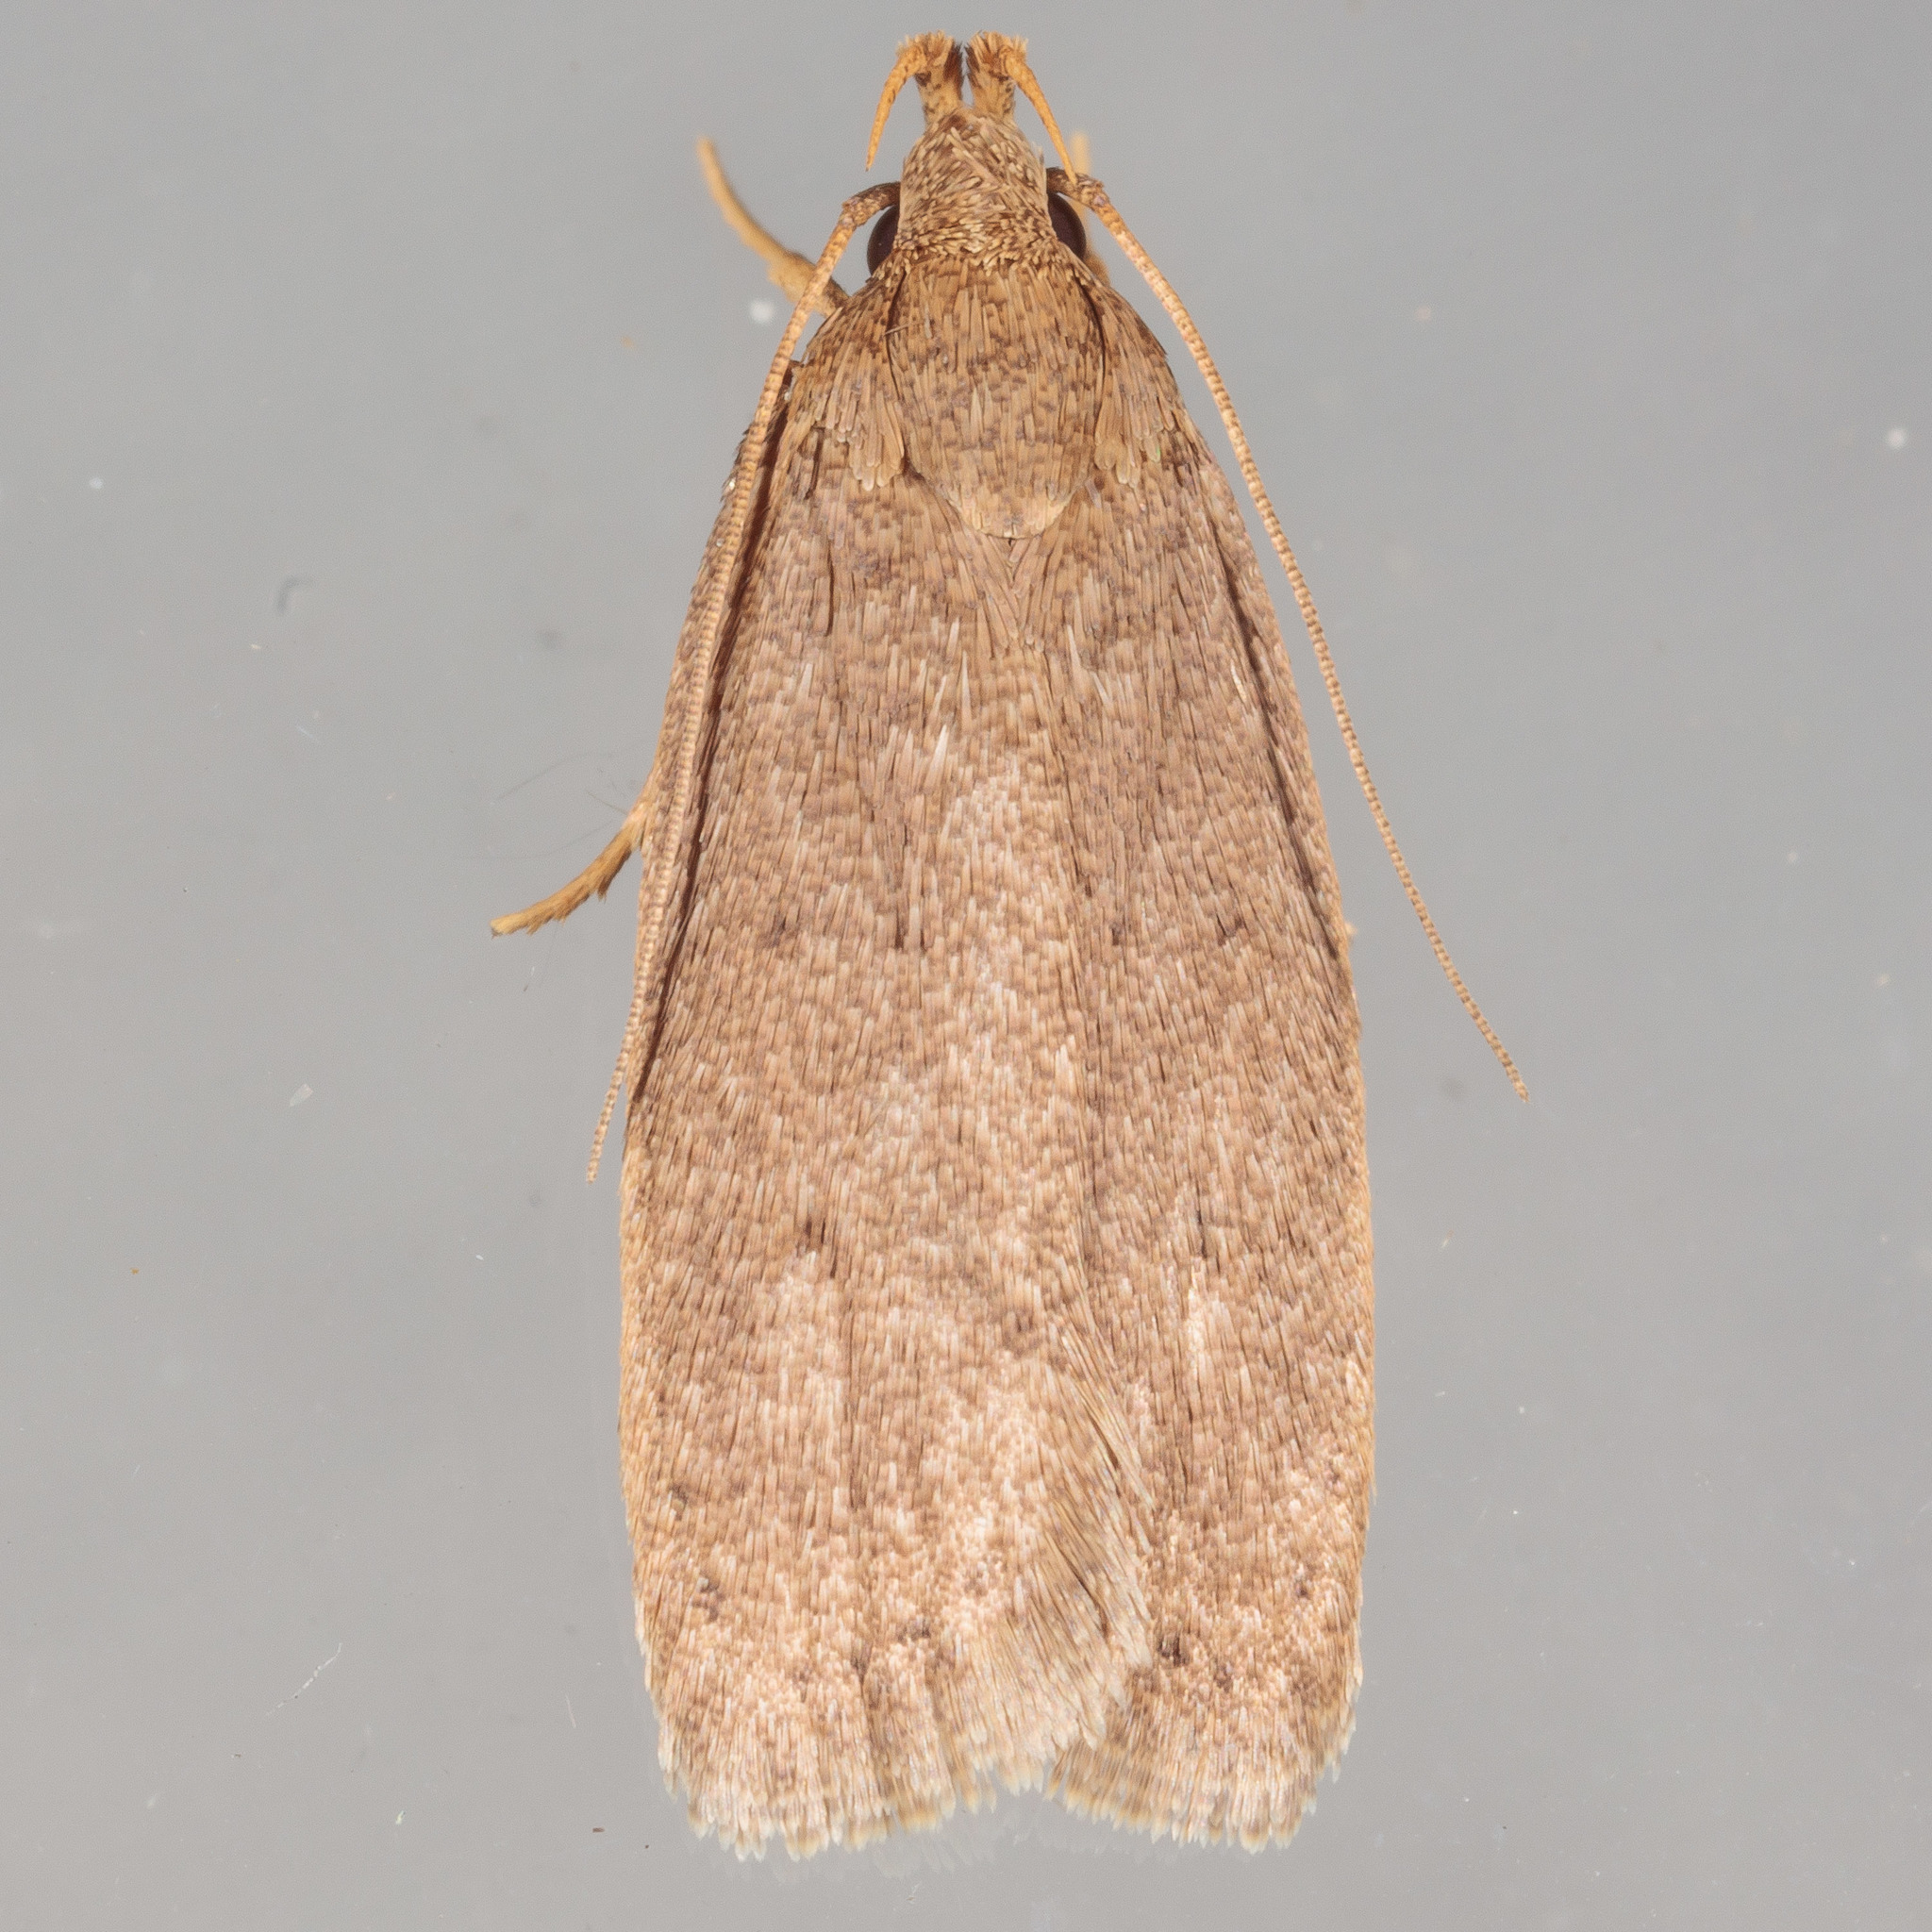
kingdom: Animalia
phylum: Arthropoda
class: Insecta
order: Lepidoptera
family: Autostichidae
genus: Autosticha
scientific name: Autosticha kyotensis
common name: Kyoto moth
